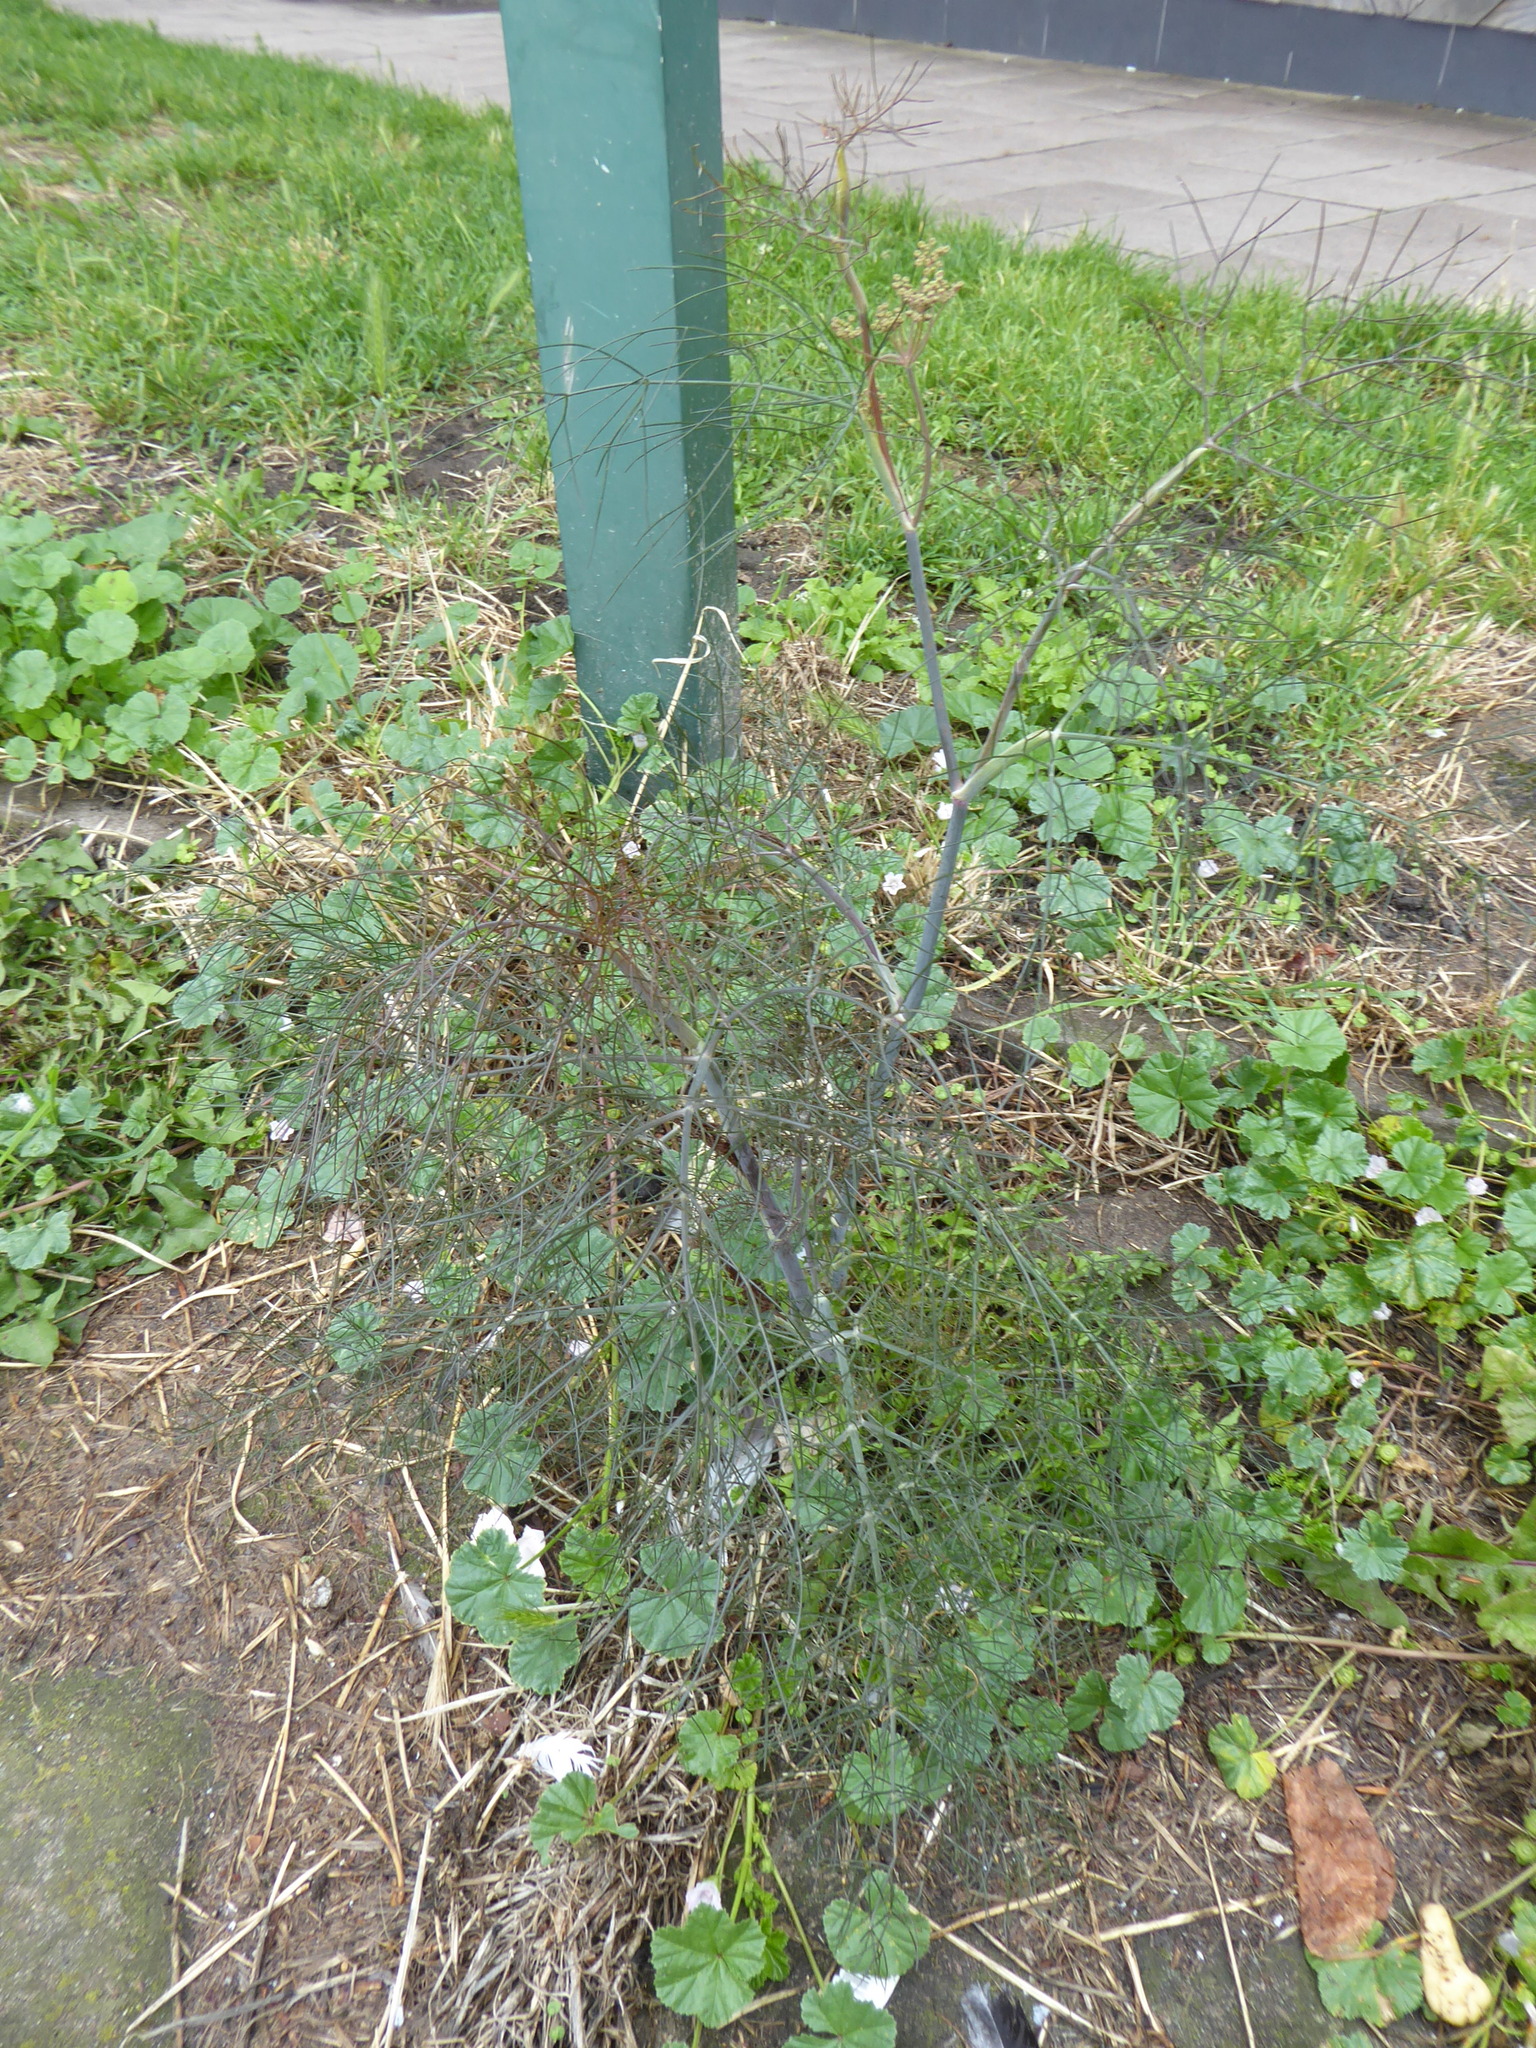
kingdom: Plantae
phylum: Tracheophyta
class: Magnoliopsida
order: Apiales
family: Apiaceae
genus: Foeniculum
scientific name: Foeniculum vulgare
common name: Fennel
